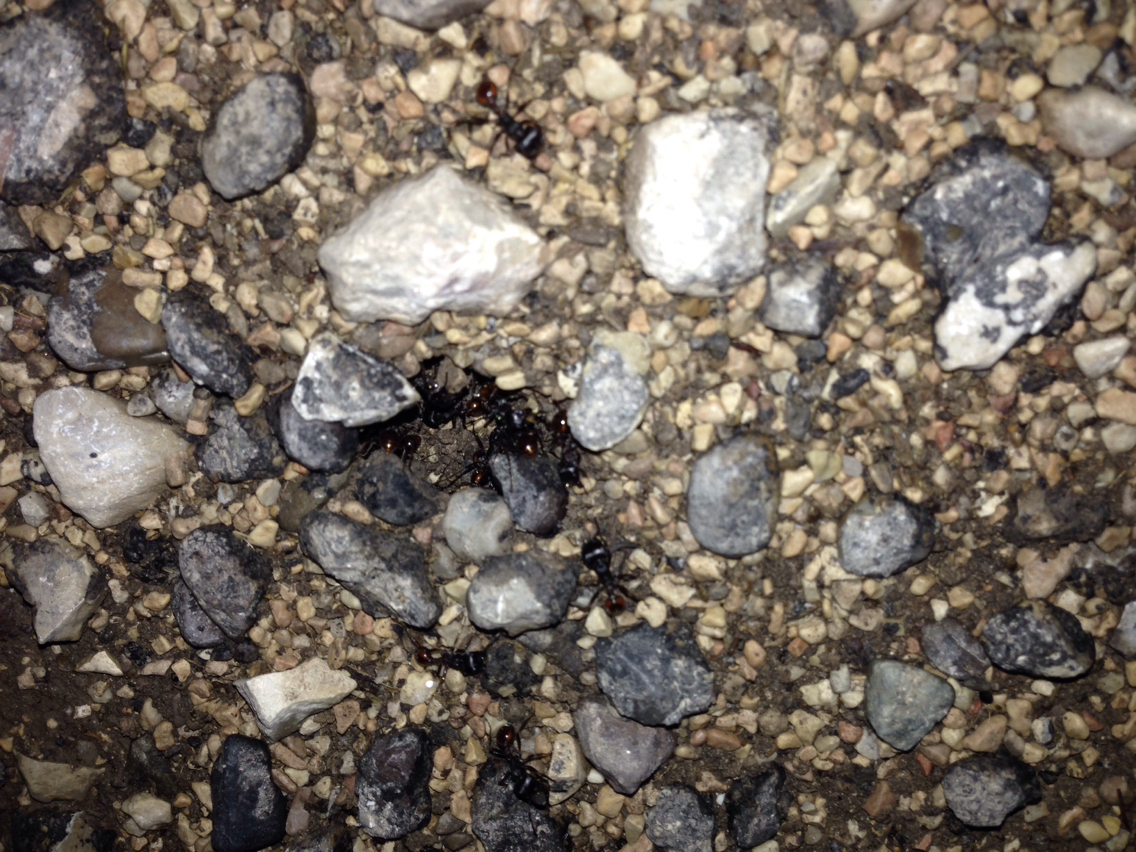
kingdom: Animalia
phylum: Arthropoda
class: Insecta
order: Hymenoptera
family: Formicidae
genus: Pogonomyrmex
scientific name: Pogonomyrmex rugosus
